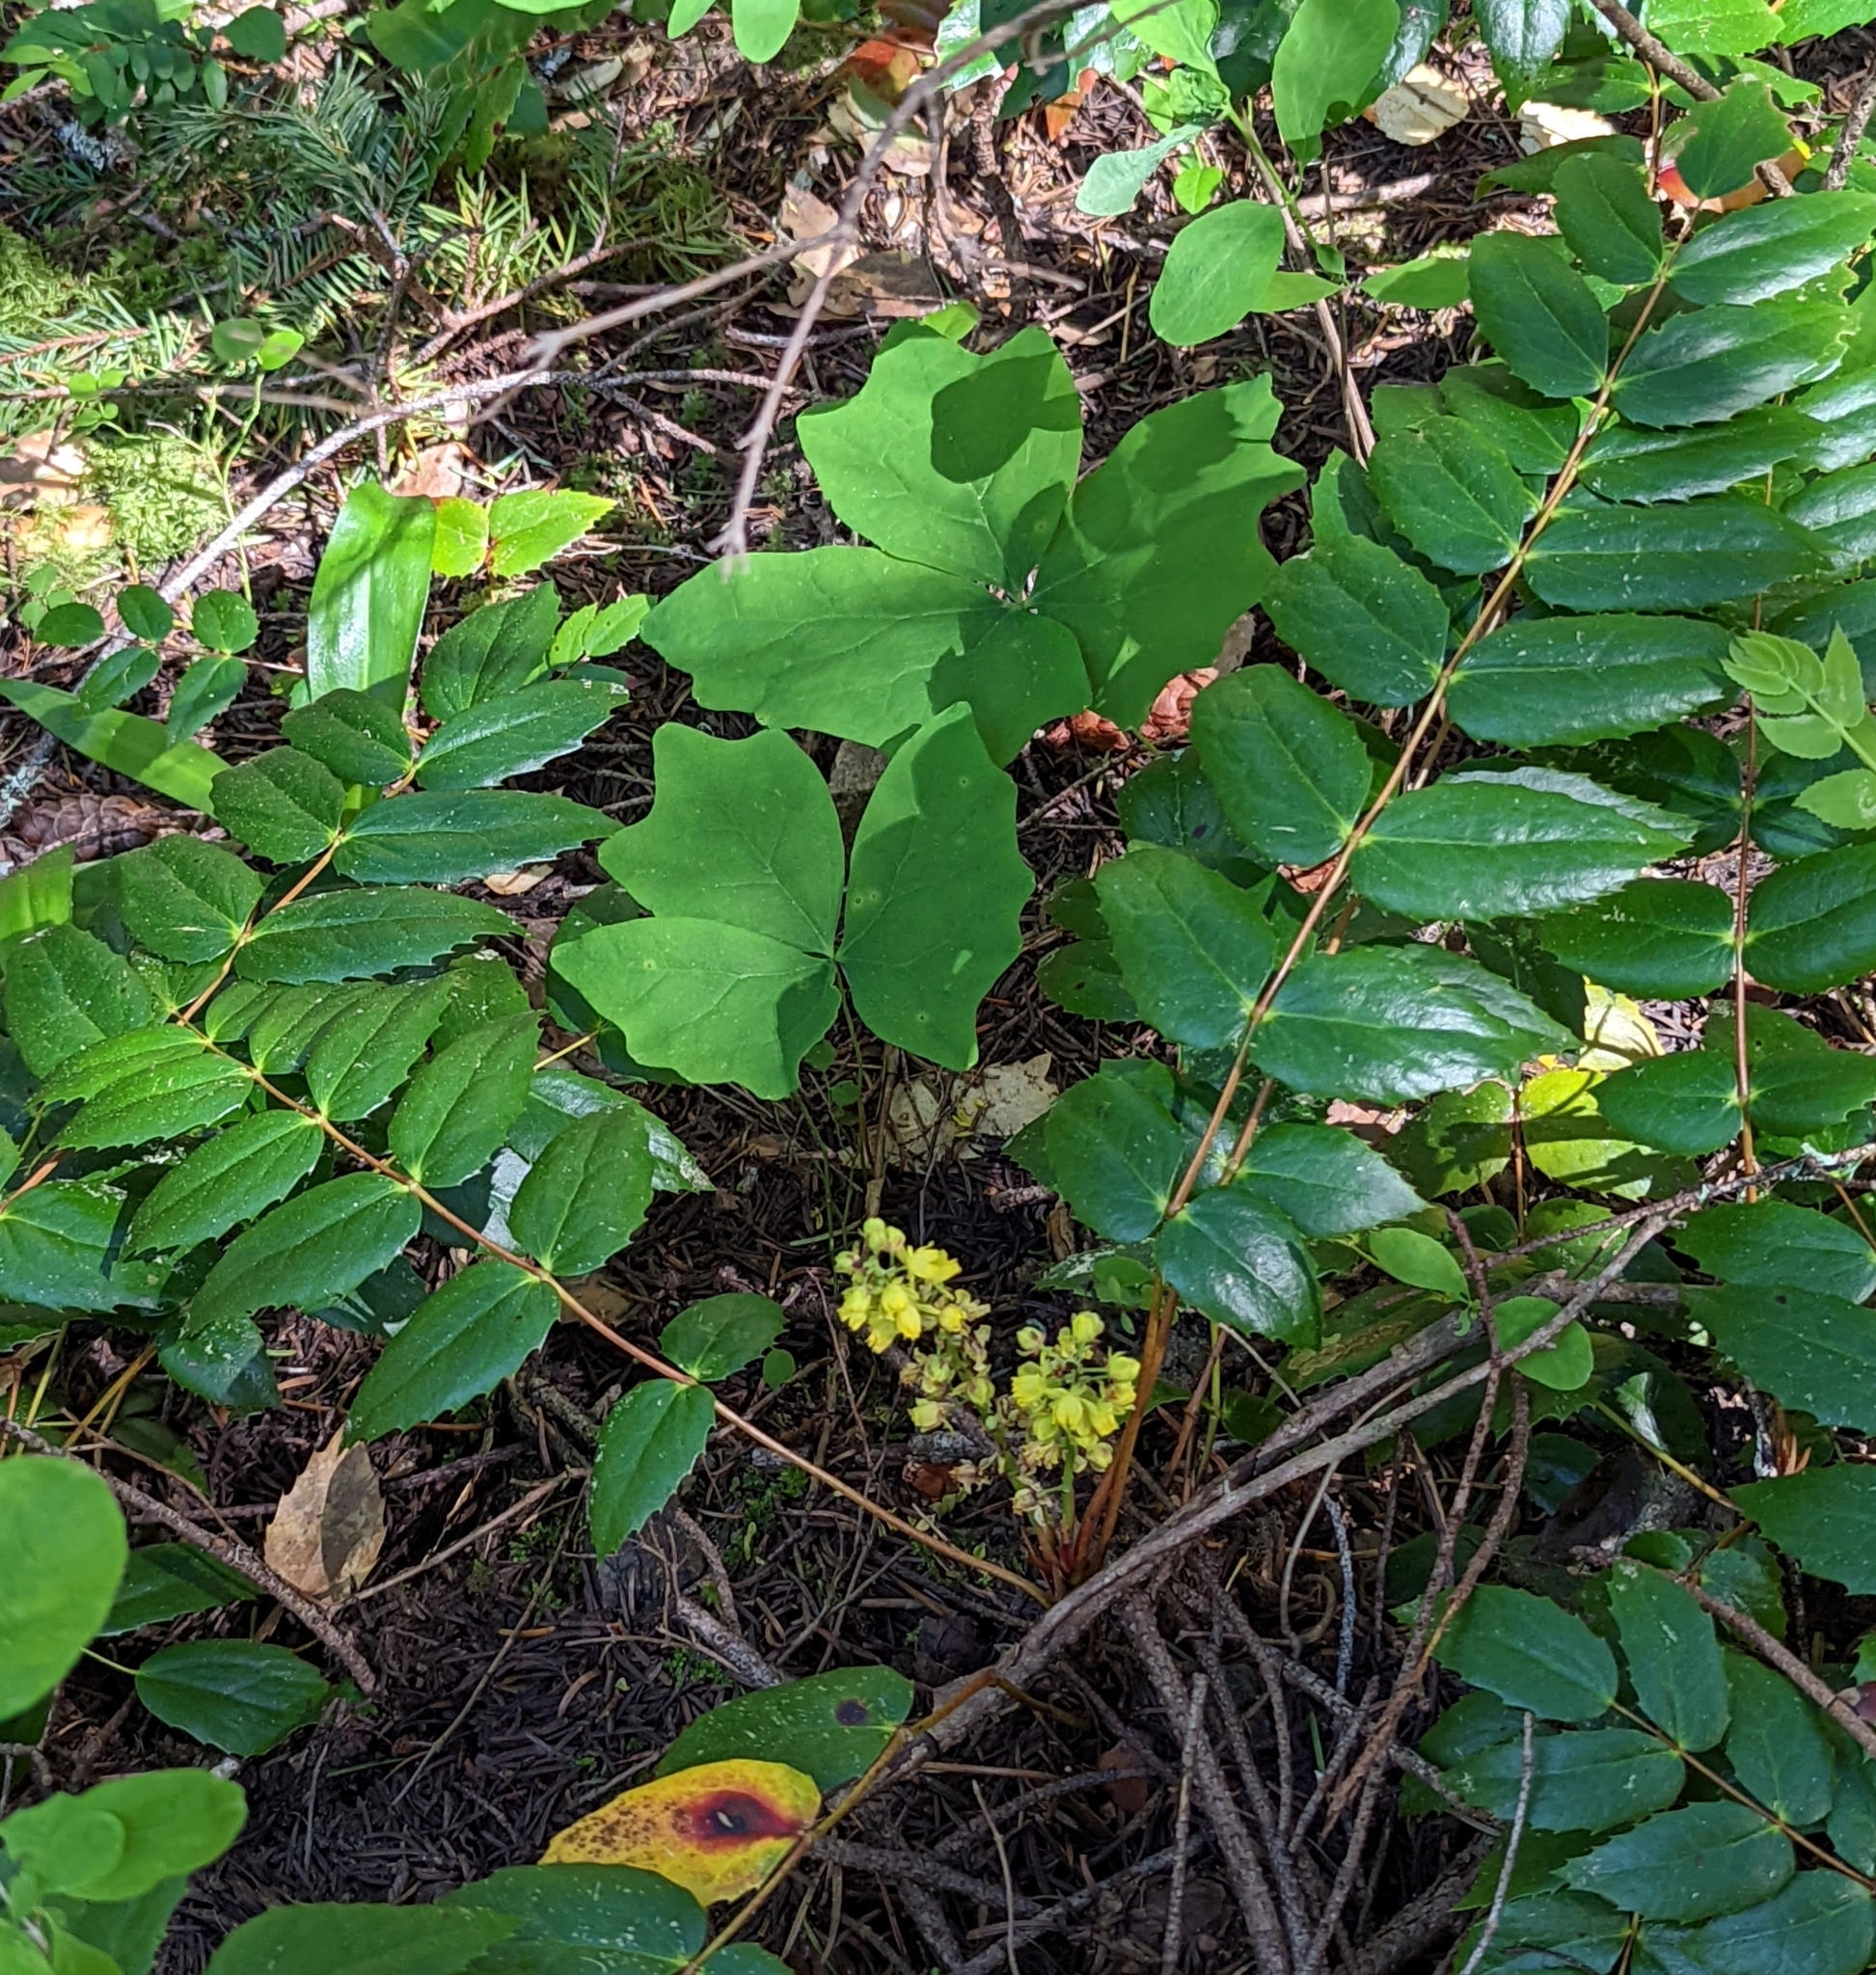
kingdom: Plantae
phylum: Tracheophyta
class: Magnoliopsida
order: Ranunculales
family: Berberidaceae
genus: Mahonia
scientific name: Mahonia nervosa
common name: Cascade oregon-grape
